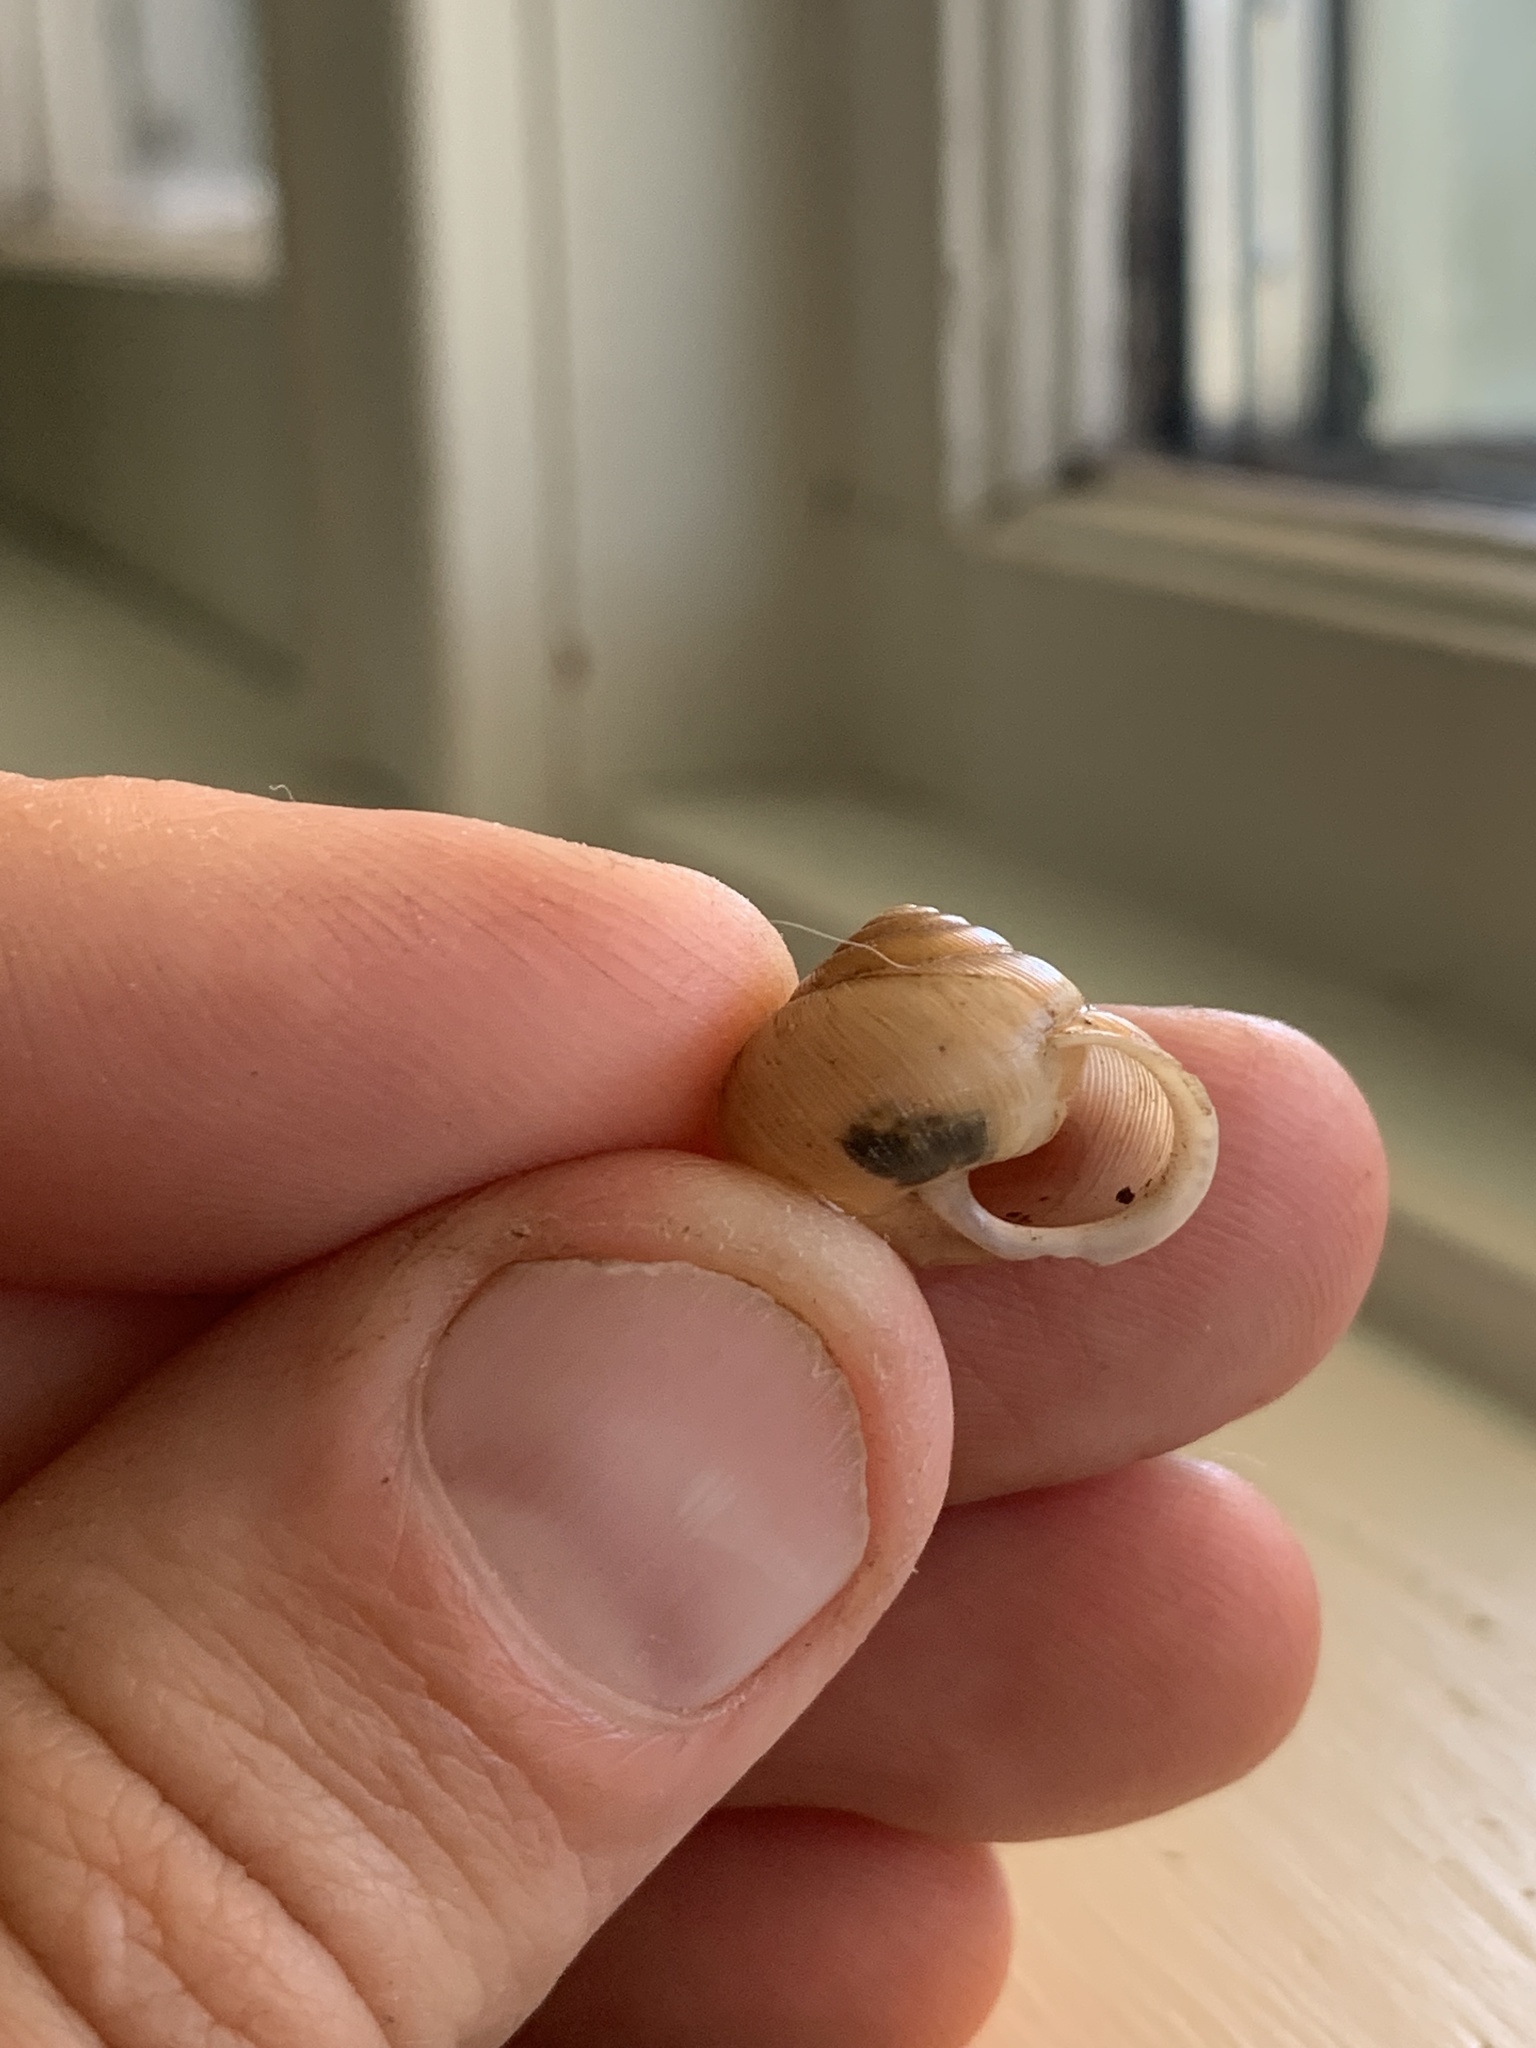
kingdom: Animalia
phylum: Mollusca
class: Gastropoda
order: Stylommatophora
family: Polygyridae
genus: Mesodon
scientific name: Mesodon clausus
